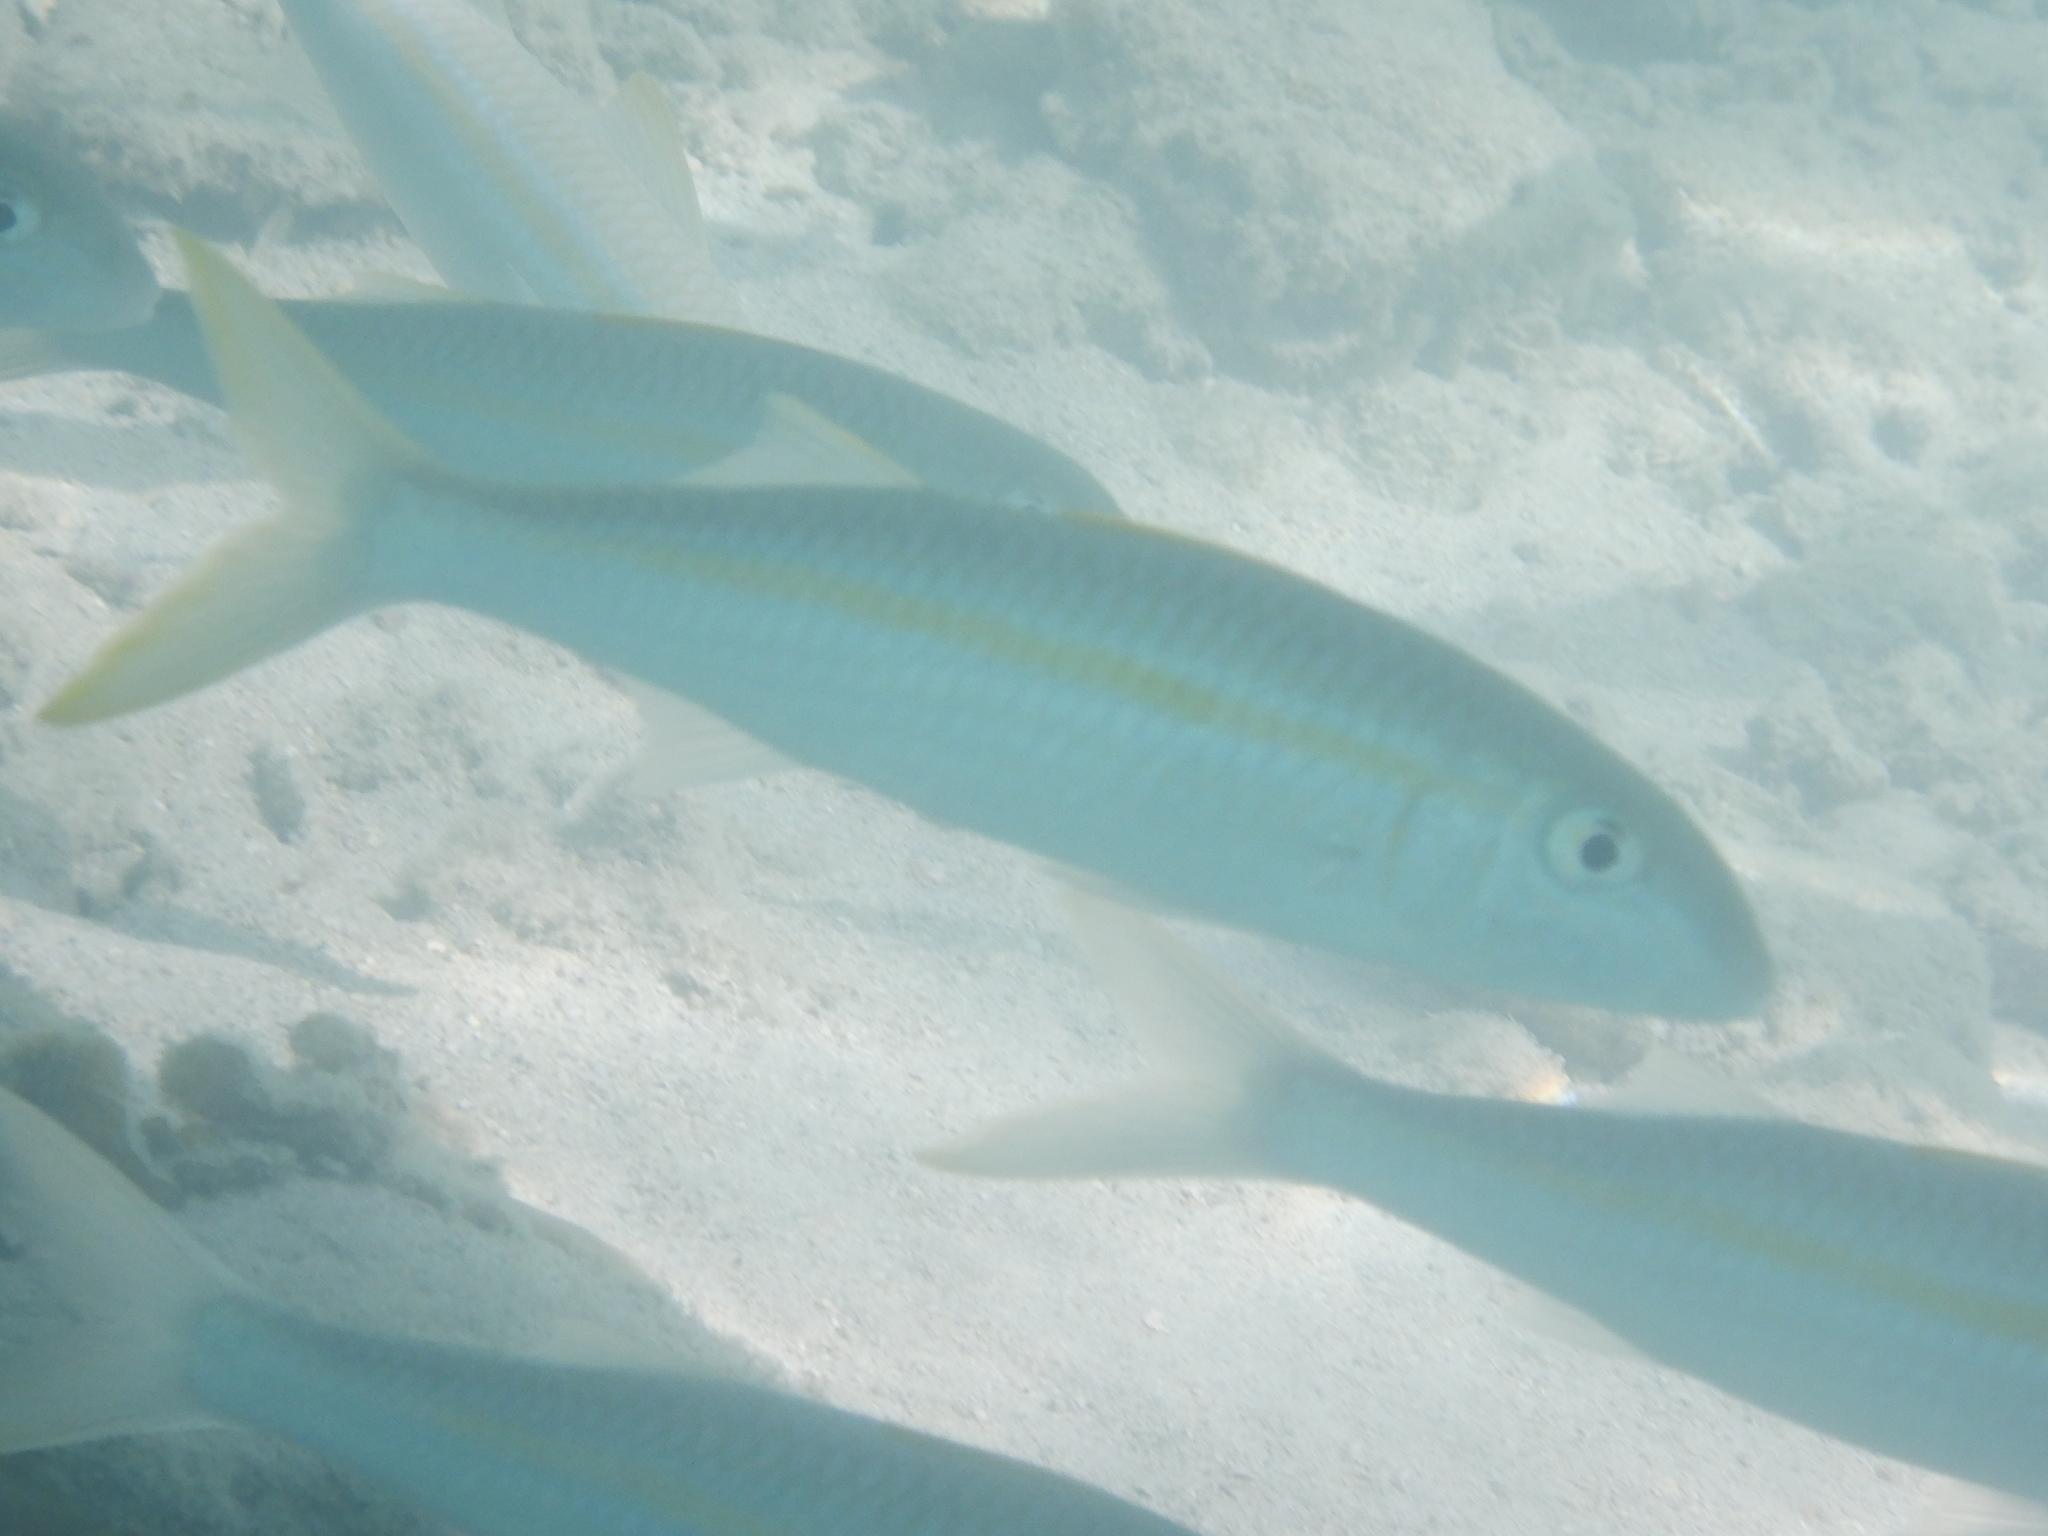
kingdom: Animalia
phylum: Chordata
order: Perciformes
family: Mullidae
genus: Mulloidichthys
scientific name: Mulloidichthys flavolineatus
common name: Yellowstripe goatfish
